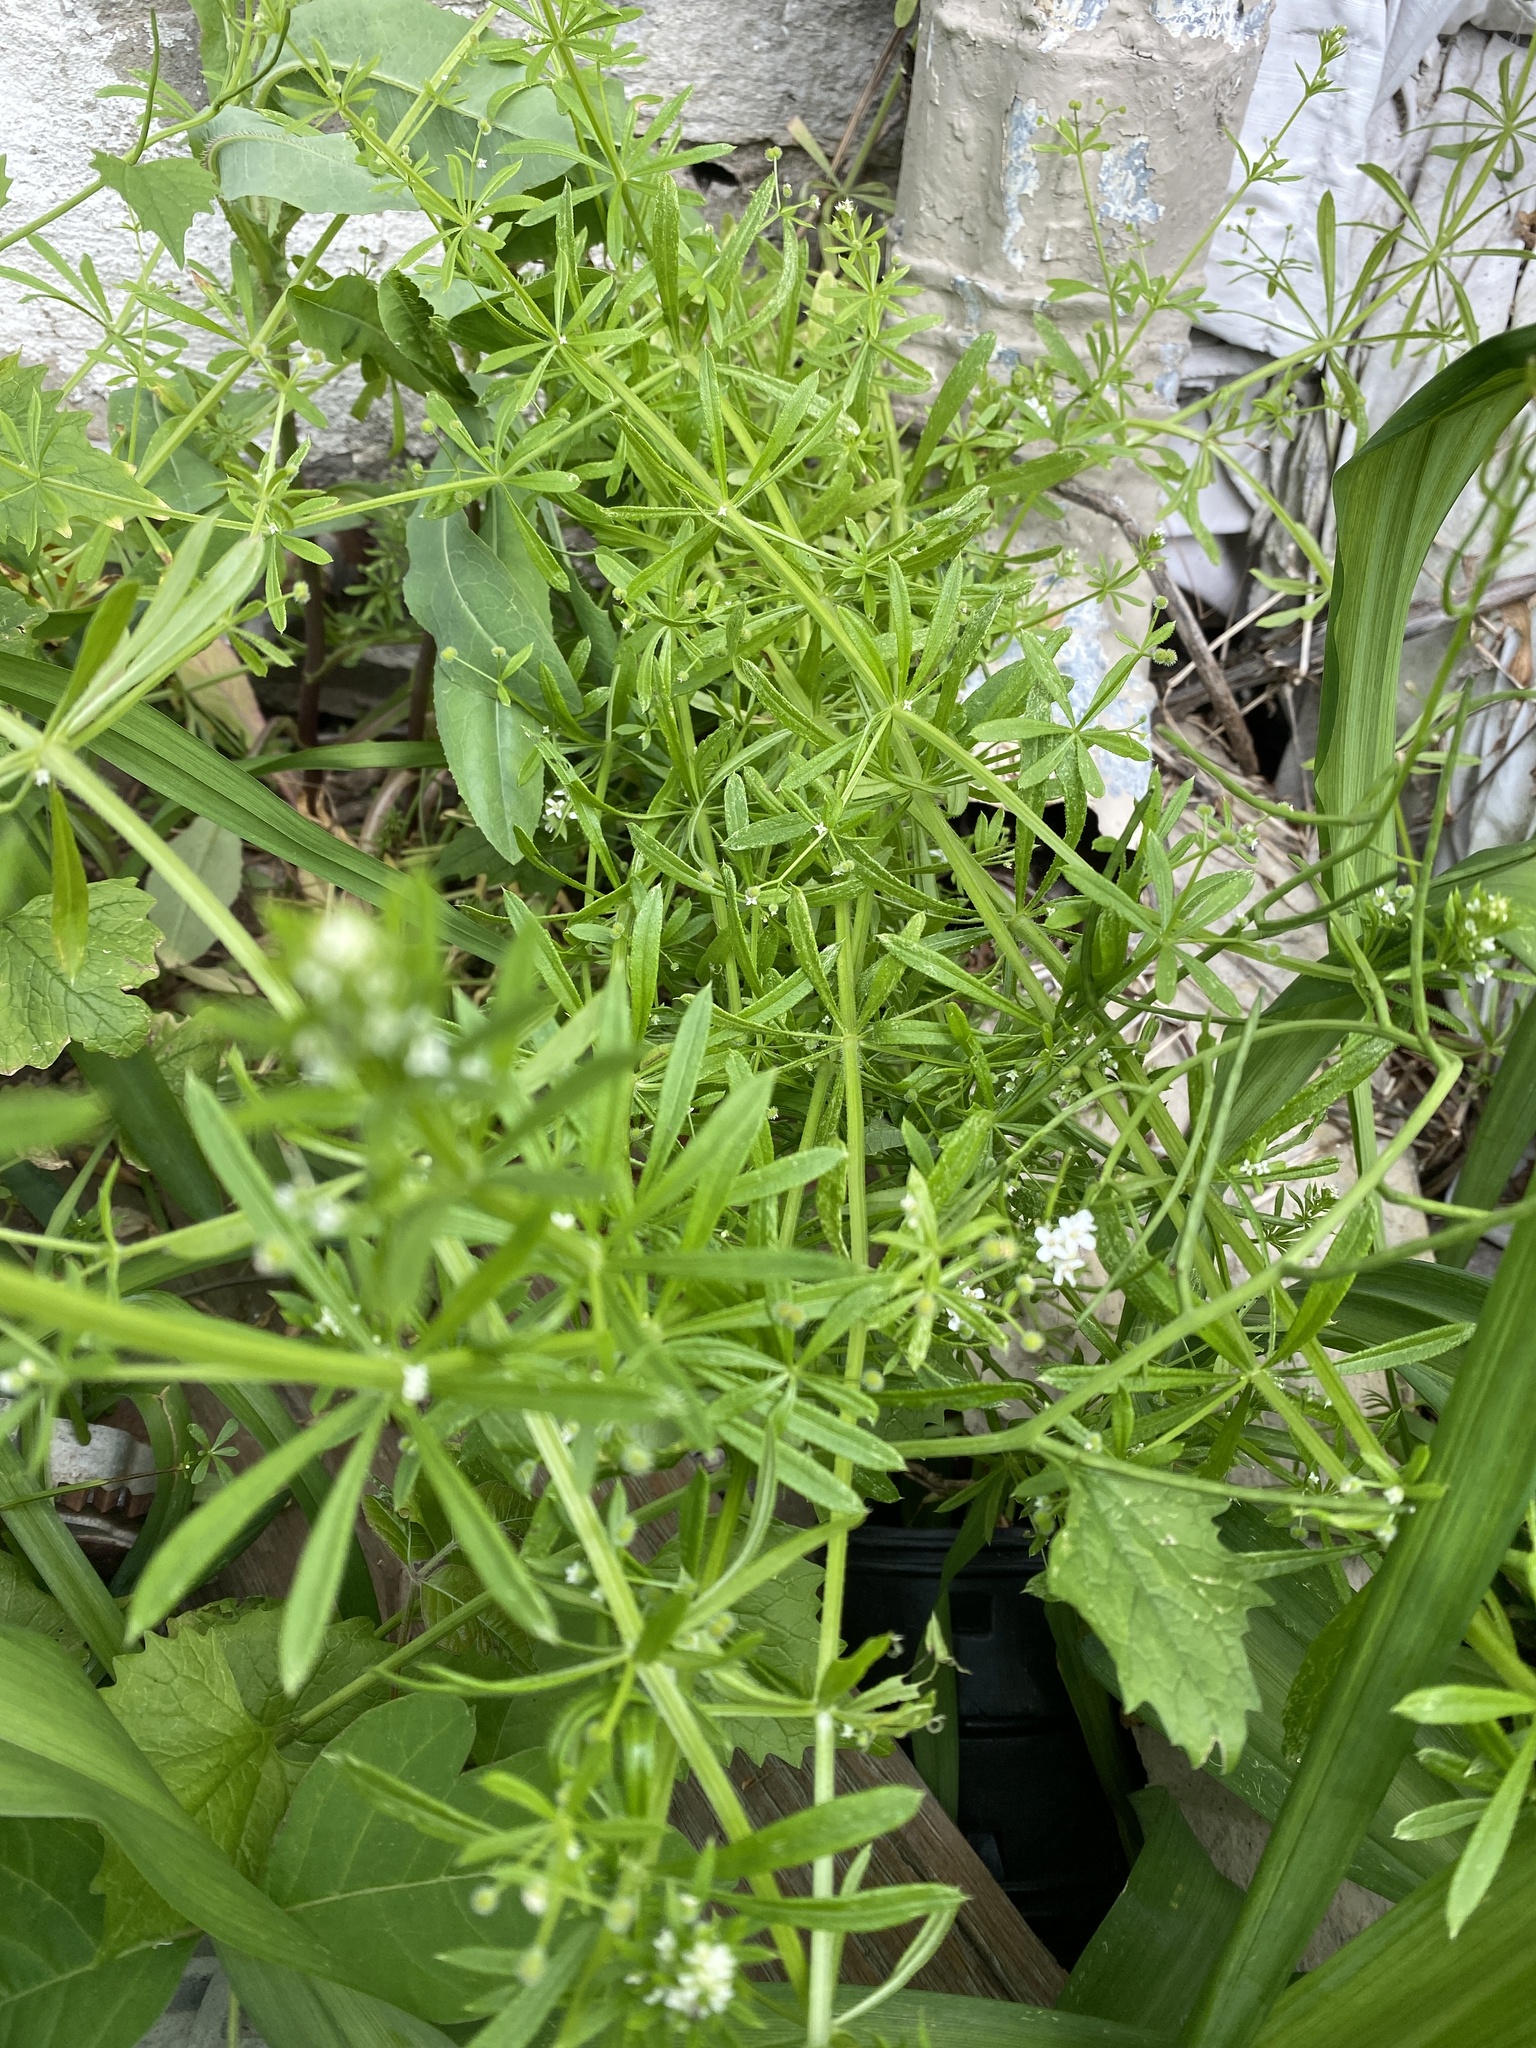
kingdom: Plantae
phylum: Tracheophyta
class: Magnoliopsida
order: Gentianales
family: Rubiaceae
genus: Galium
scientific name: Galium aparine
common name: Cleavers
